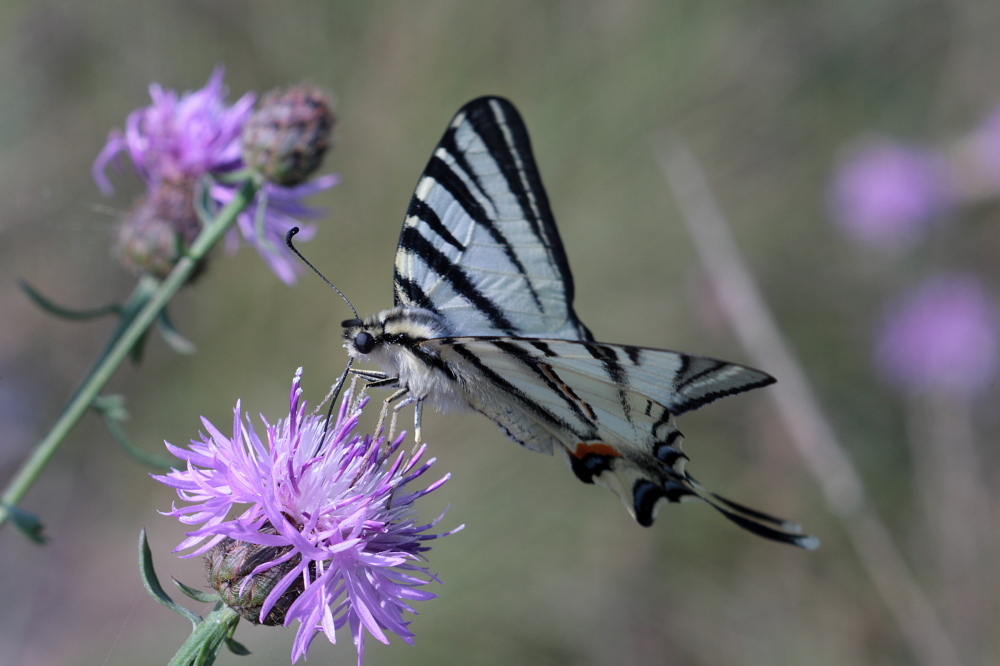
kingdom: Animalia
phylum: Arthropoda
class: Insecta
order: Lepidoptera
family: Papilionidae
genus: Iphiclides
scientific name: Iphiclides podalirius
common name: Scarce swallowtail
